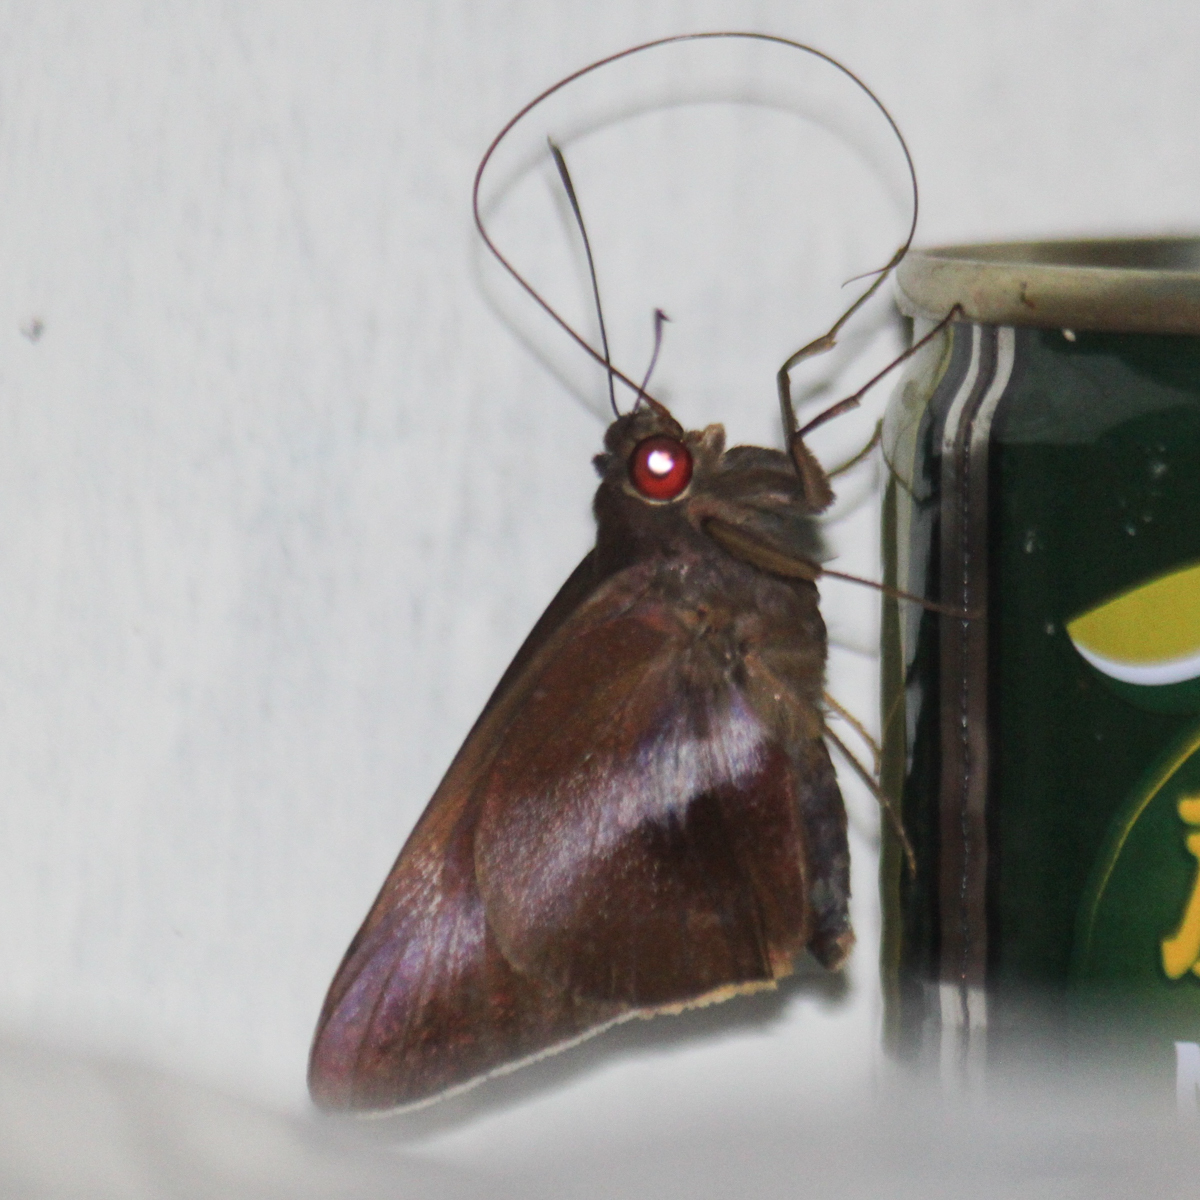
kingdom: Animalia
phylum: Arthropoda
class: Insecta
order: Lepidoptera
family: Hesperiidae
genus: Gangara
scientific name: Gangara lebadea
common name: Banded redeye
